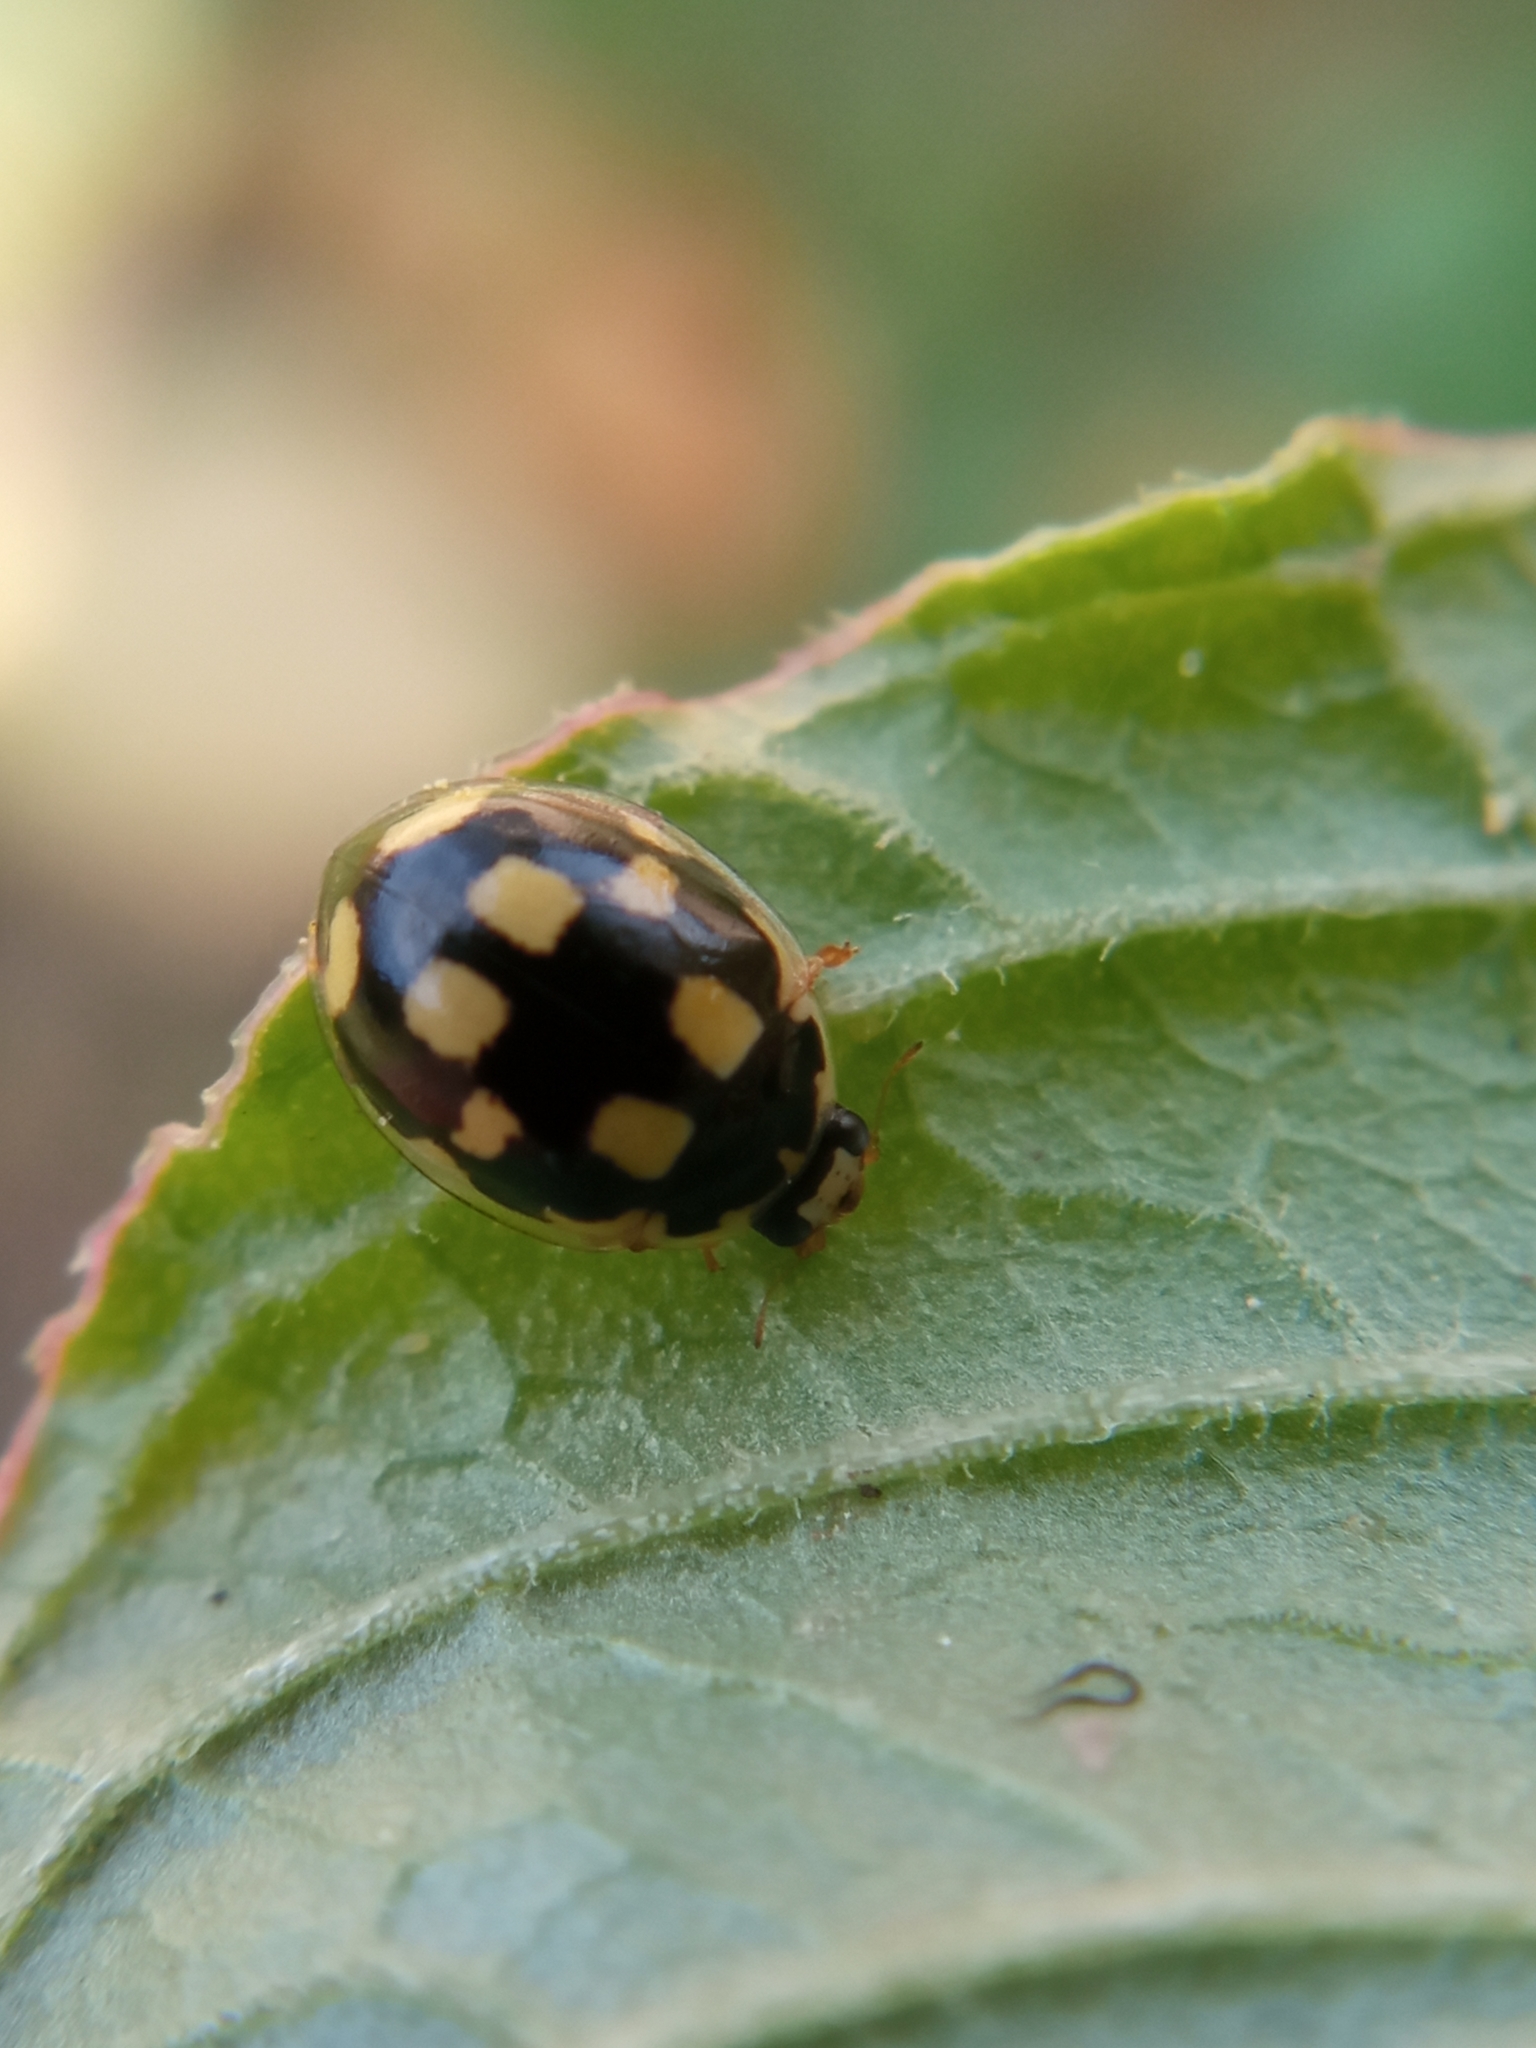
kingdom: Animalia
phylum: Arthropoda
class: Insecta
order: Coleoptera
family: Coccinellidae
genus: Propylaea
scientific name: Propylaea quatuordecimpunctata
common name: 14-spotted ladybird beetle
